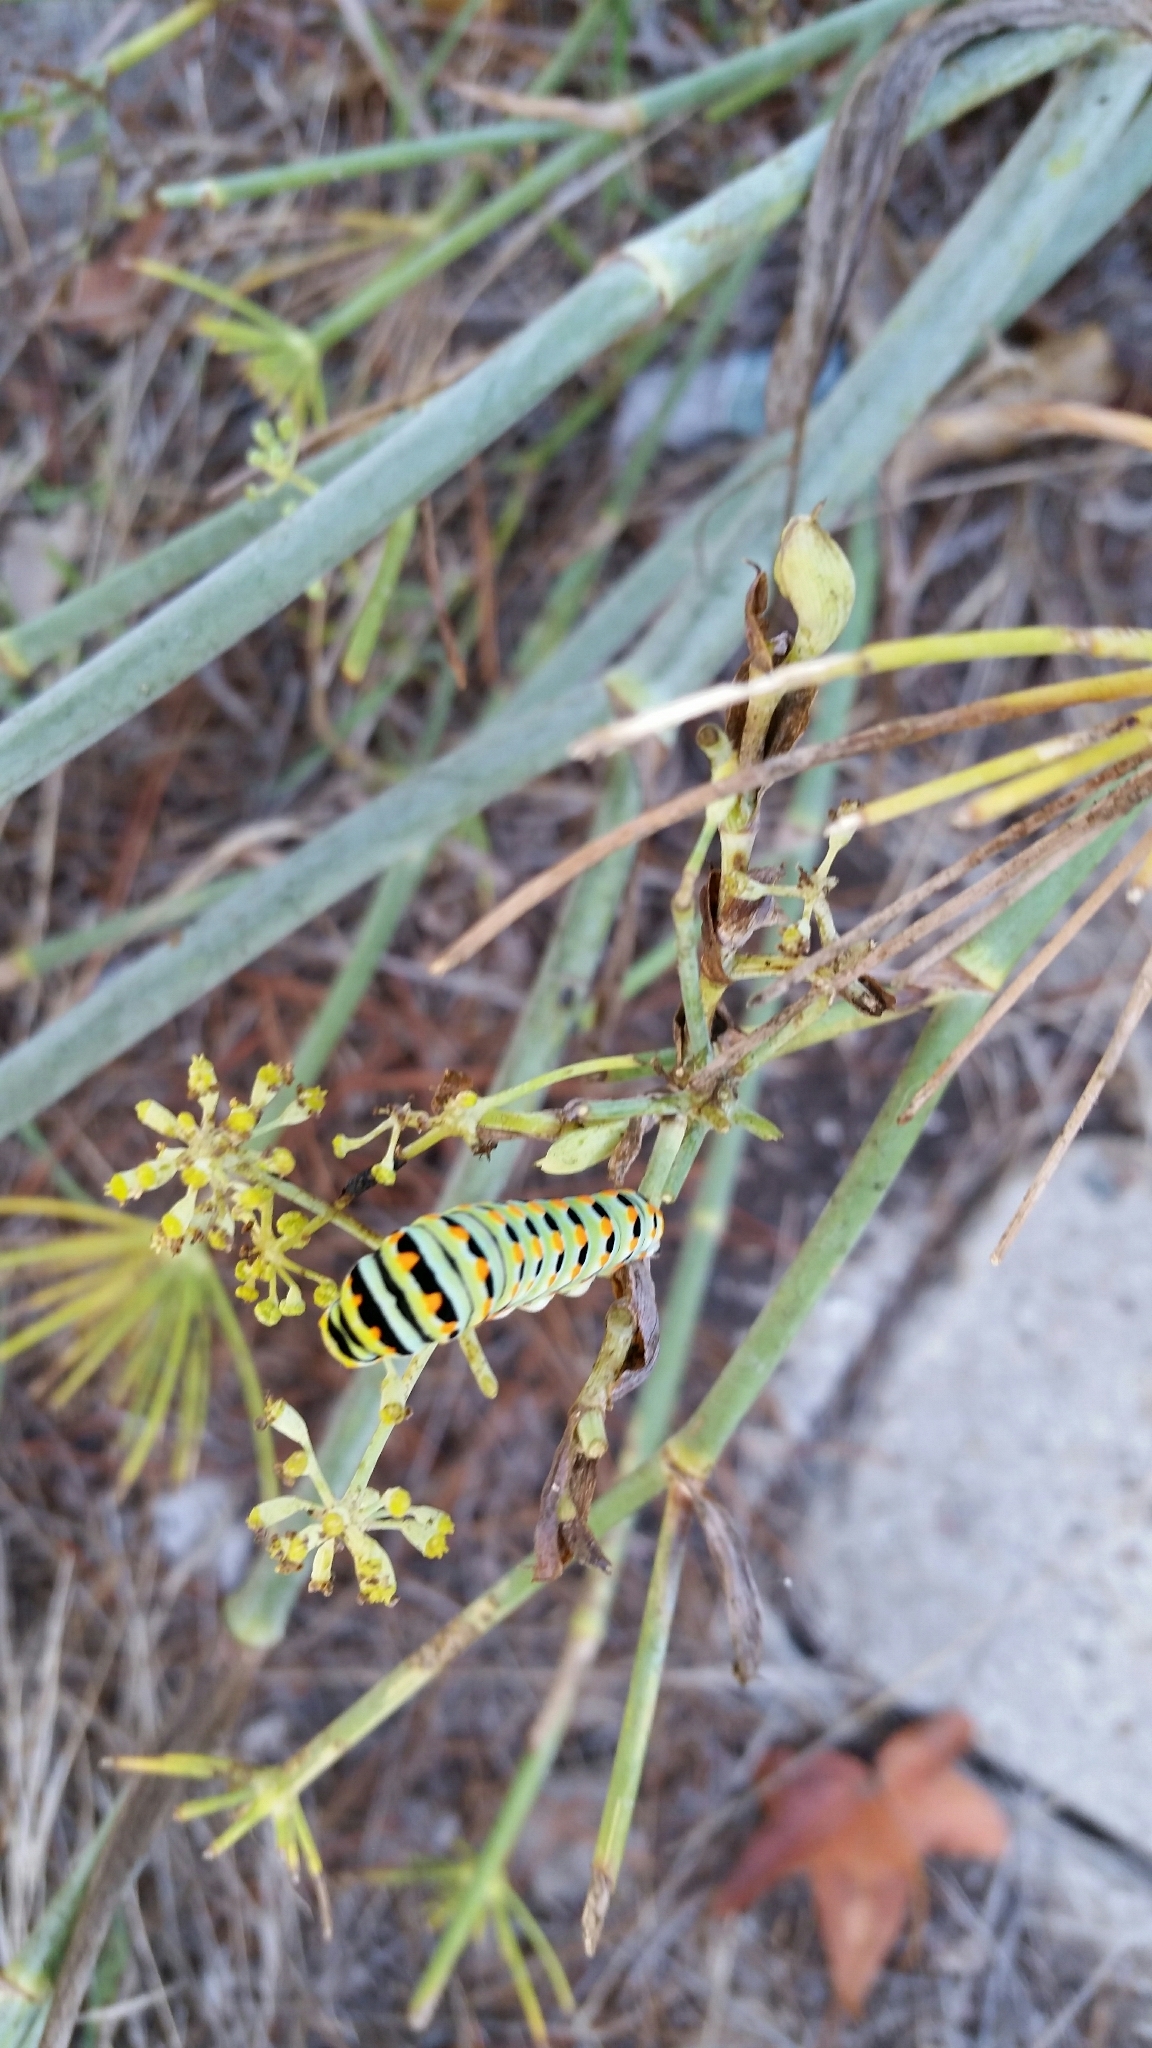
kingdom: Animalia
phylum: Arthropoda
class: Insecta
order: Lepidoptera
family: Papilionidae
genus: Papilio
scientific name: Papilio zelicaon
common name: Anise swallowtail
